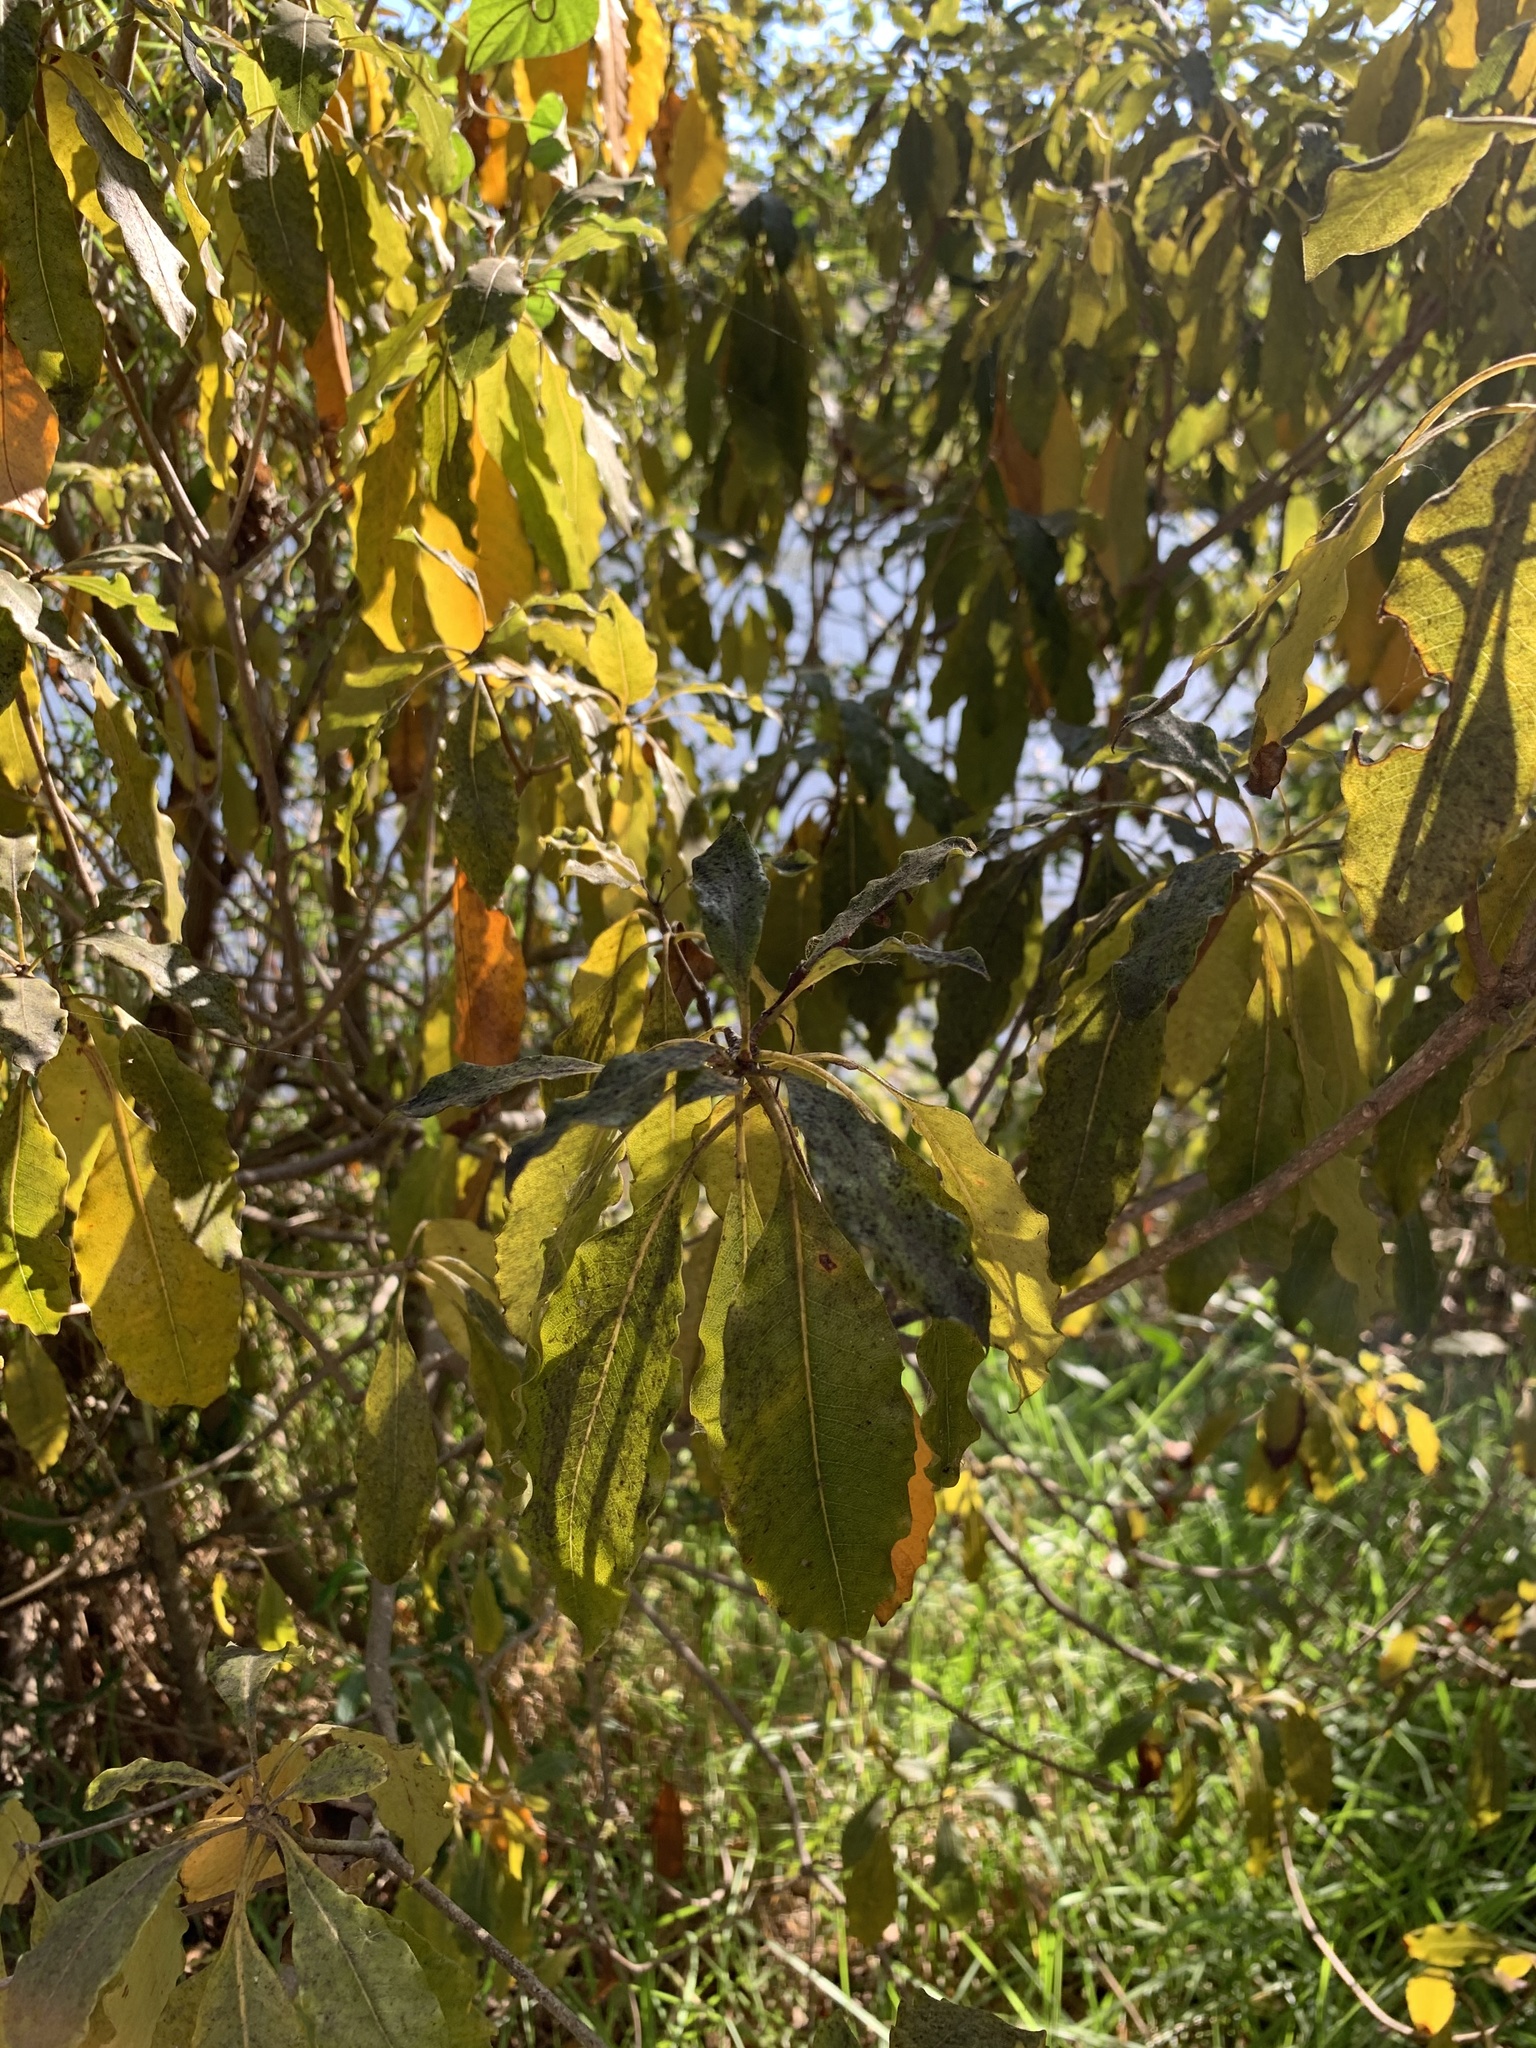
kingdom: Plantae
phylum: Tracheophyta
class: Magnoliopsida
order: Apiales
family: Pittosporaceae
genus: Pittosporum
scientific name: Pittosporum undulatum
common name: Australian cheesewood
